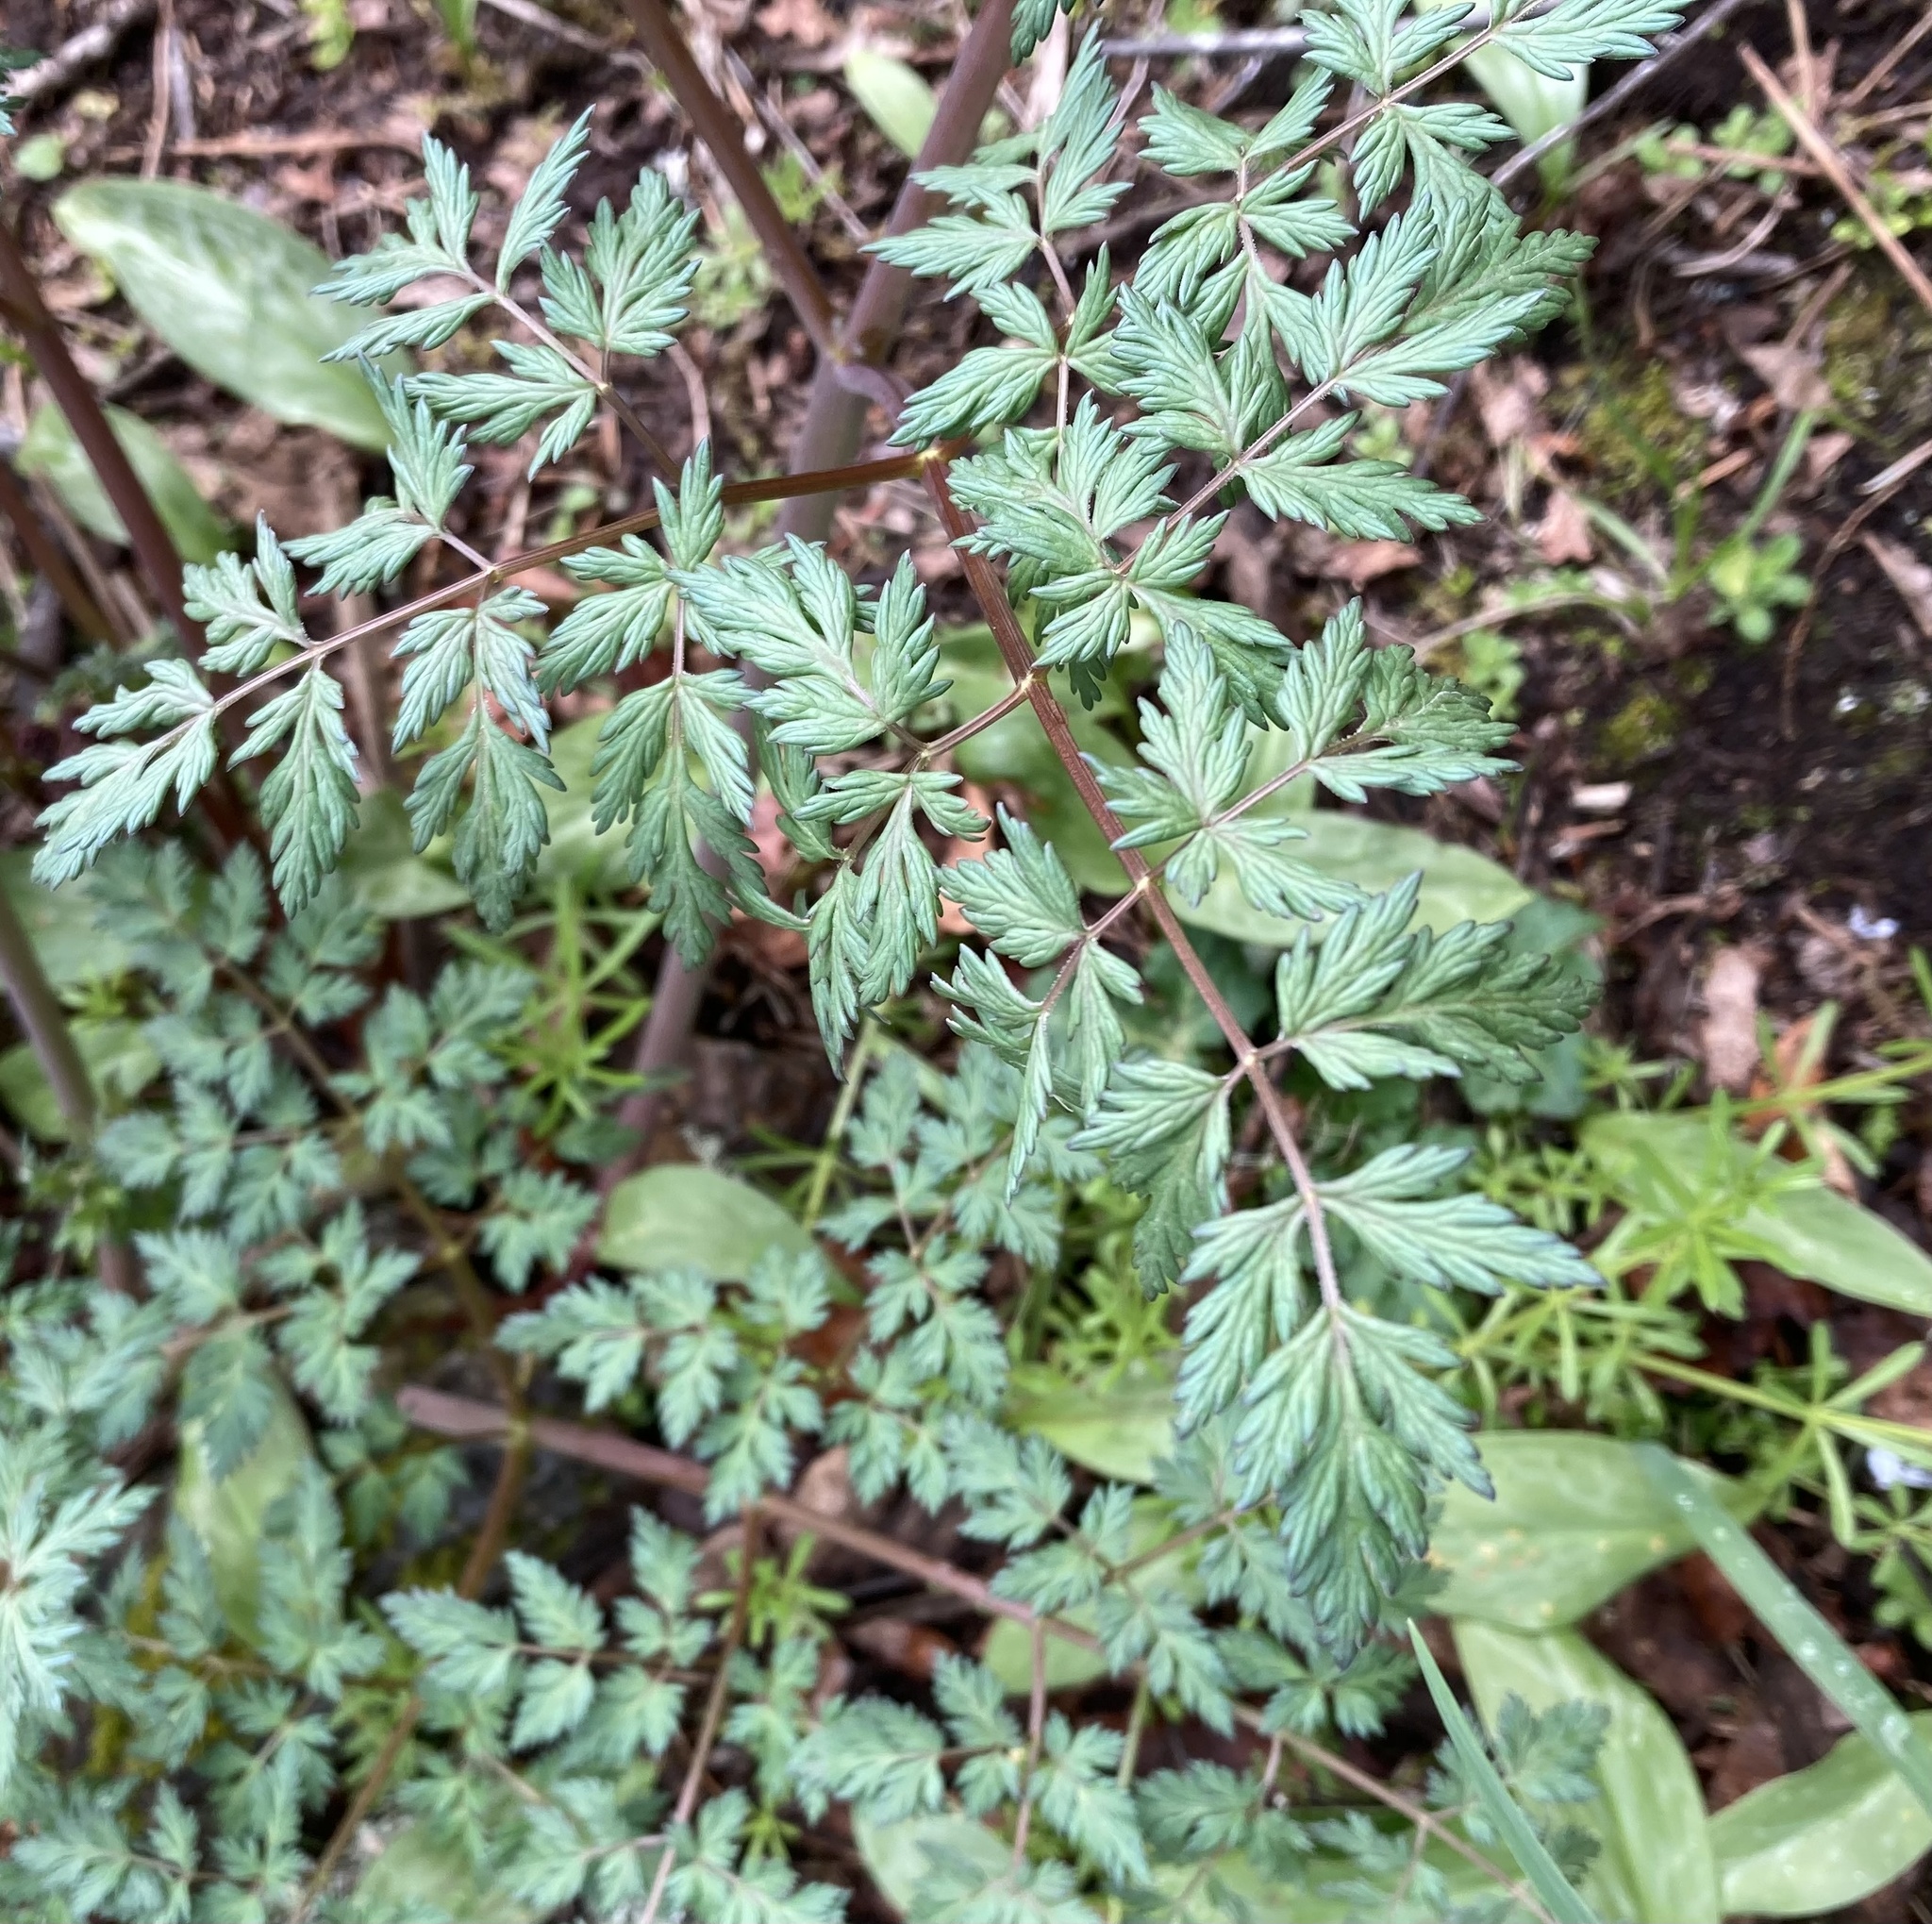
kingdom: Plantae
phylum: Tracheophyta
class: Magnoliopsida
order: Apiales
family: Apiaceae
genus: Lomatium
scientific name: Lomatium dissectum
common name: Lomatium
